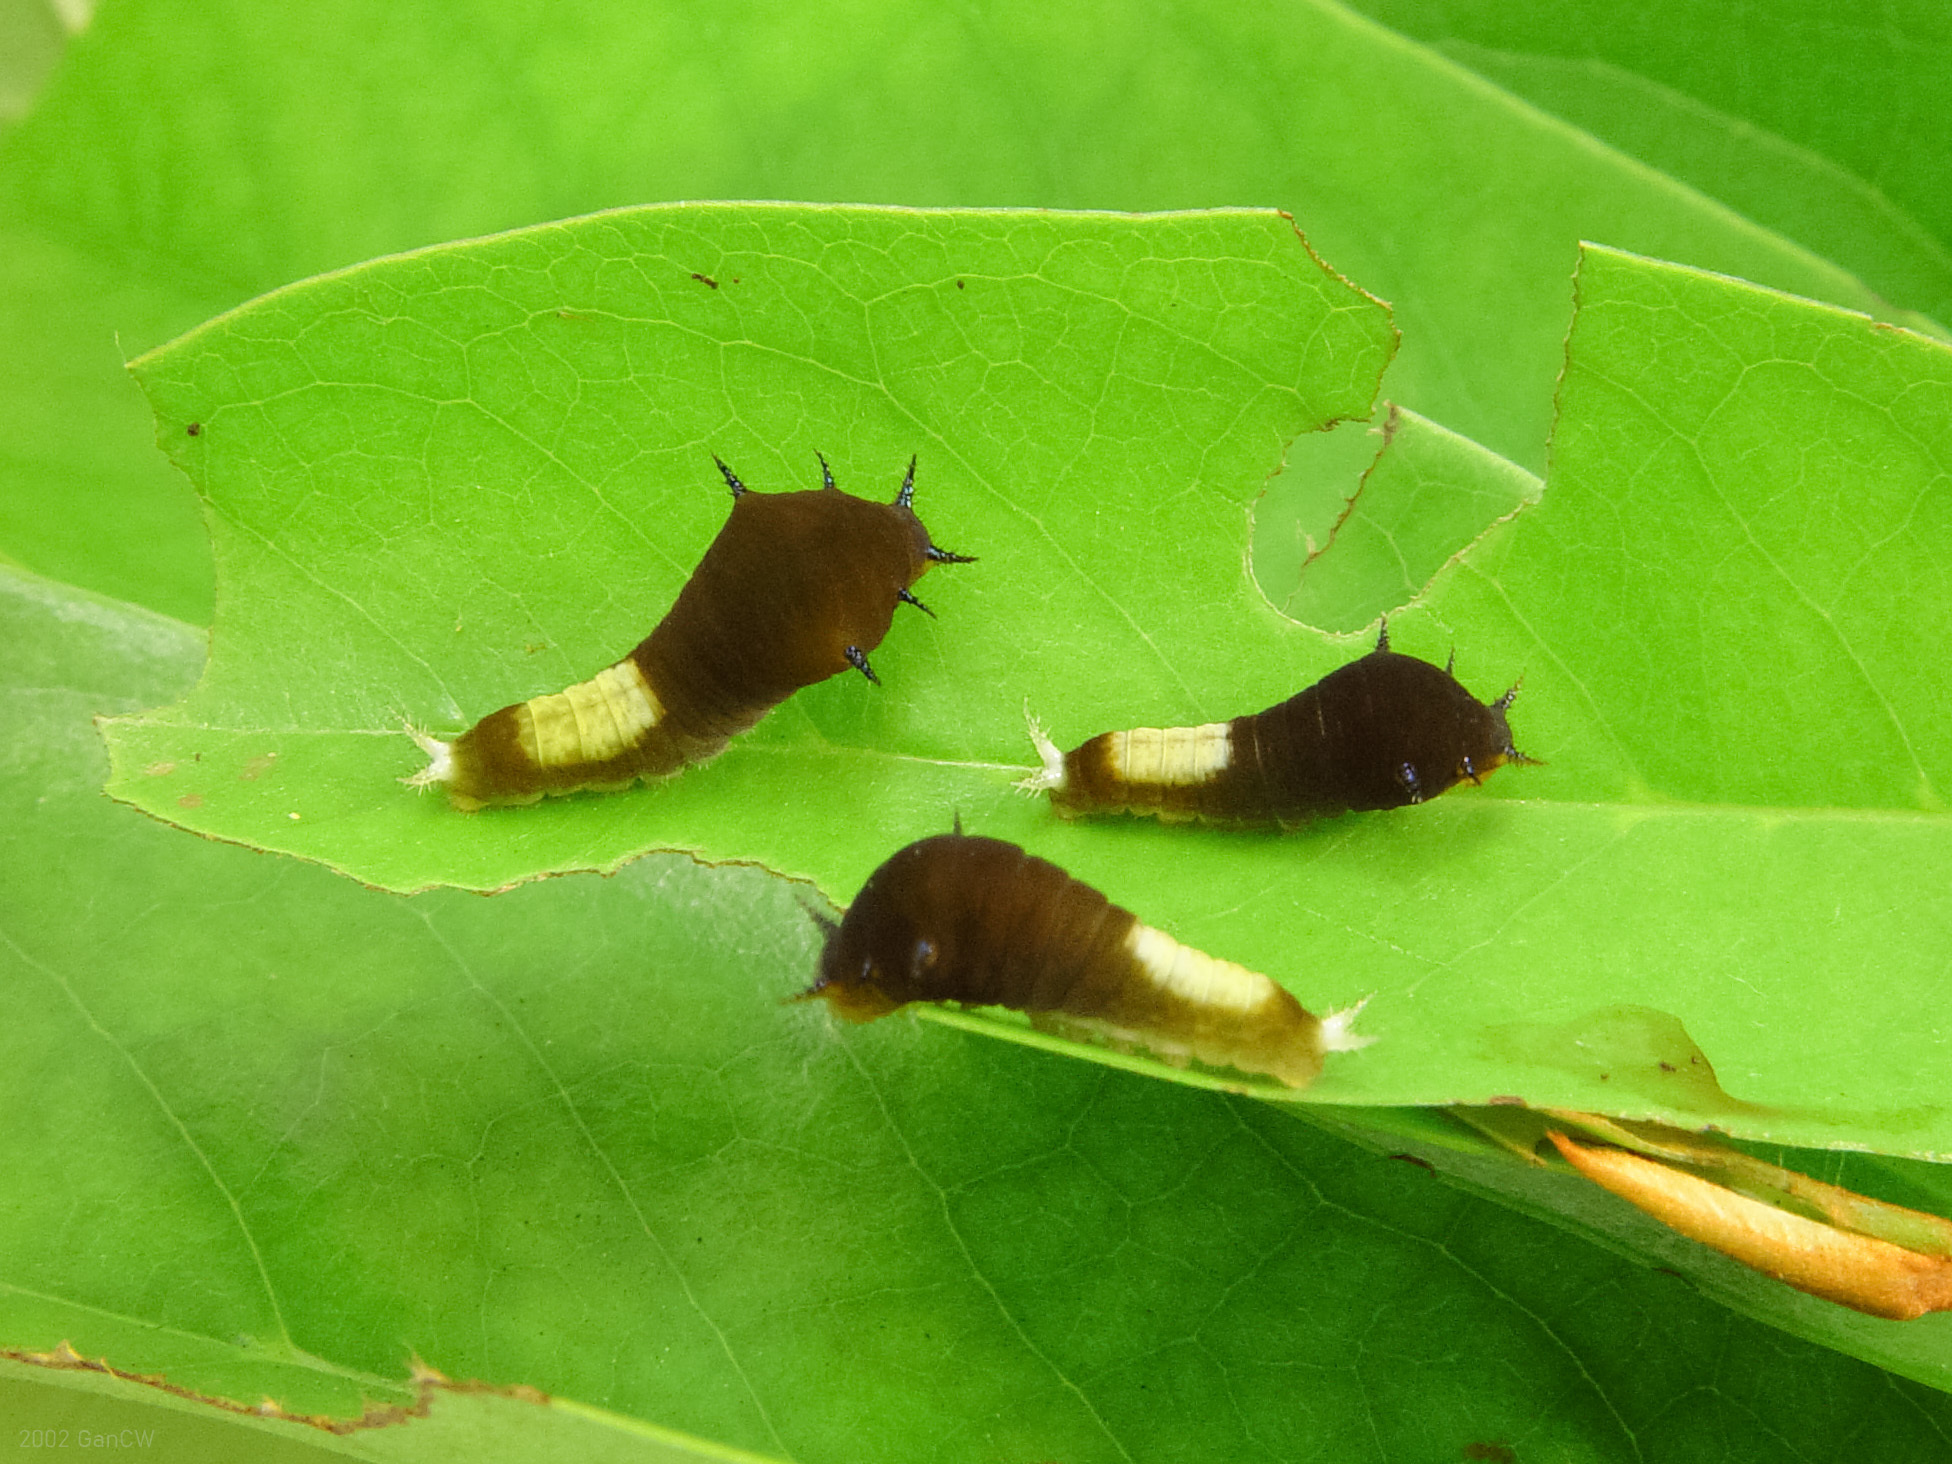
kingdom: Animalia
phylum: Arthropoda
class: Insecta
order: Lepidoptera
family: Papilionidae
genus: Graphium
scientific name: Graphium agamemnon
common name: Tailed jay
